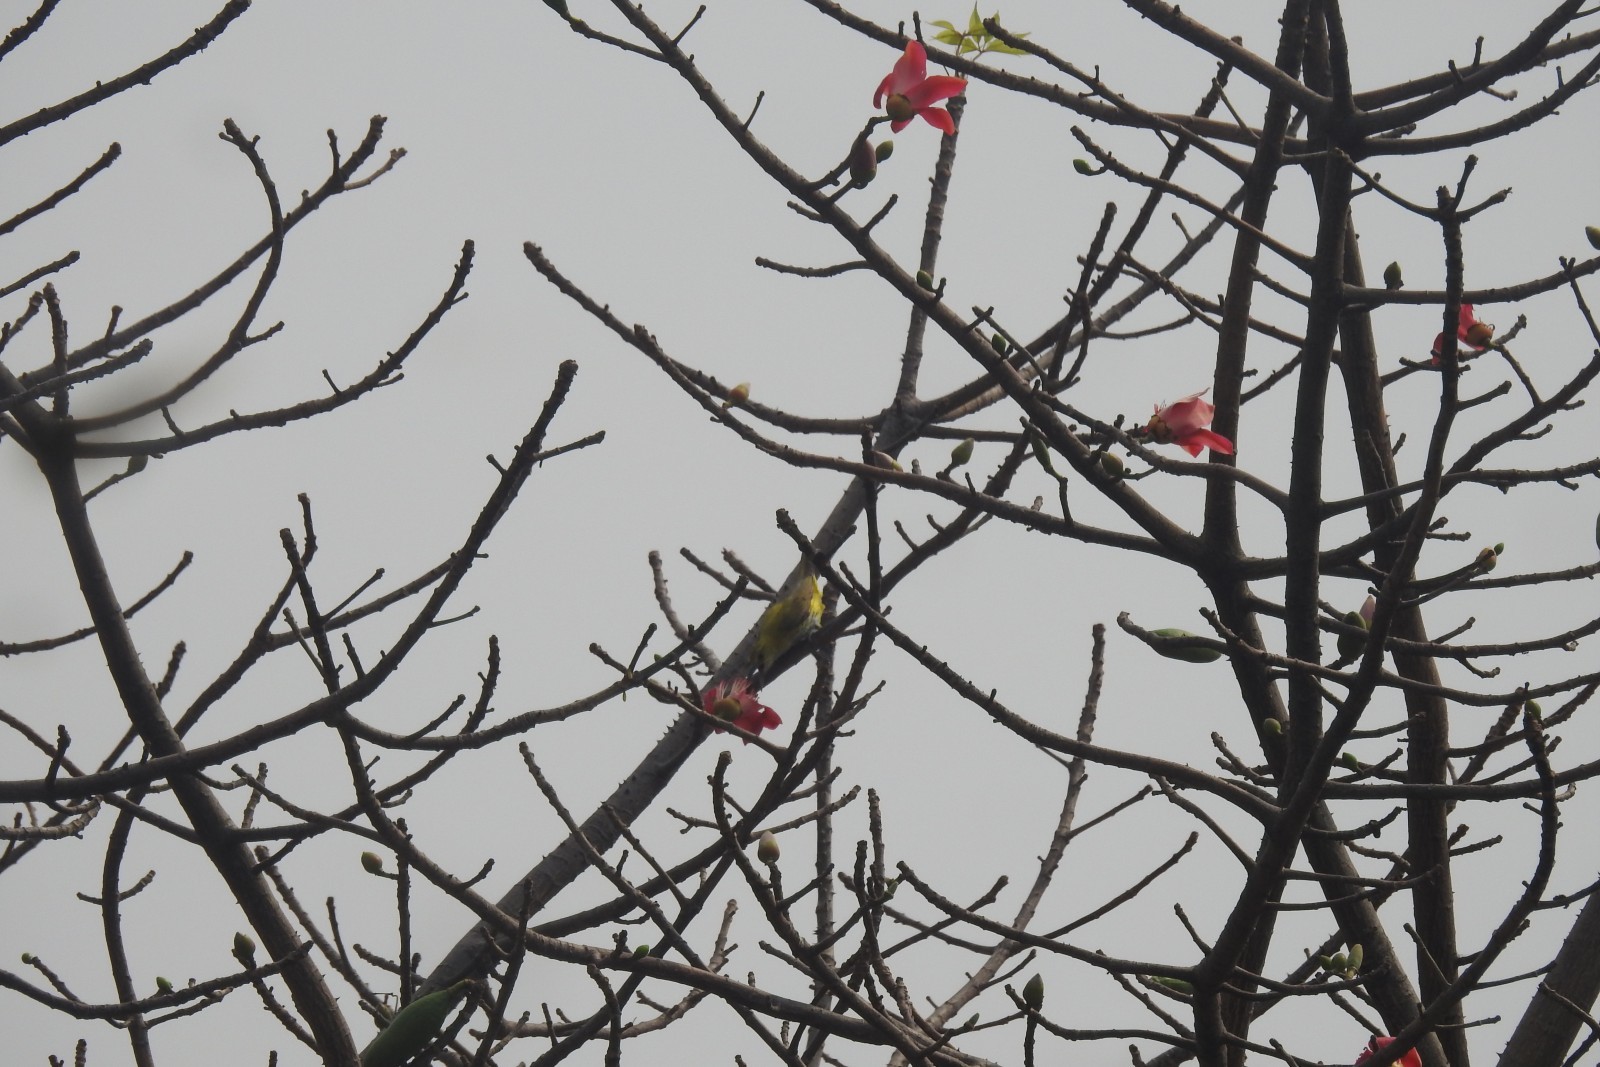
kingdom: Animalia
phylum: Chordata
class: Aves
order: Passeriformes
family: Oriolidae
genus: Oriolus
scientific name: Oriolus kundoo
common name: Indian golden oriole
